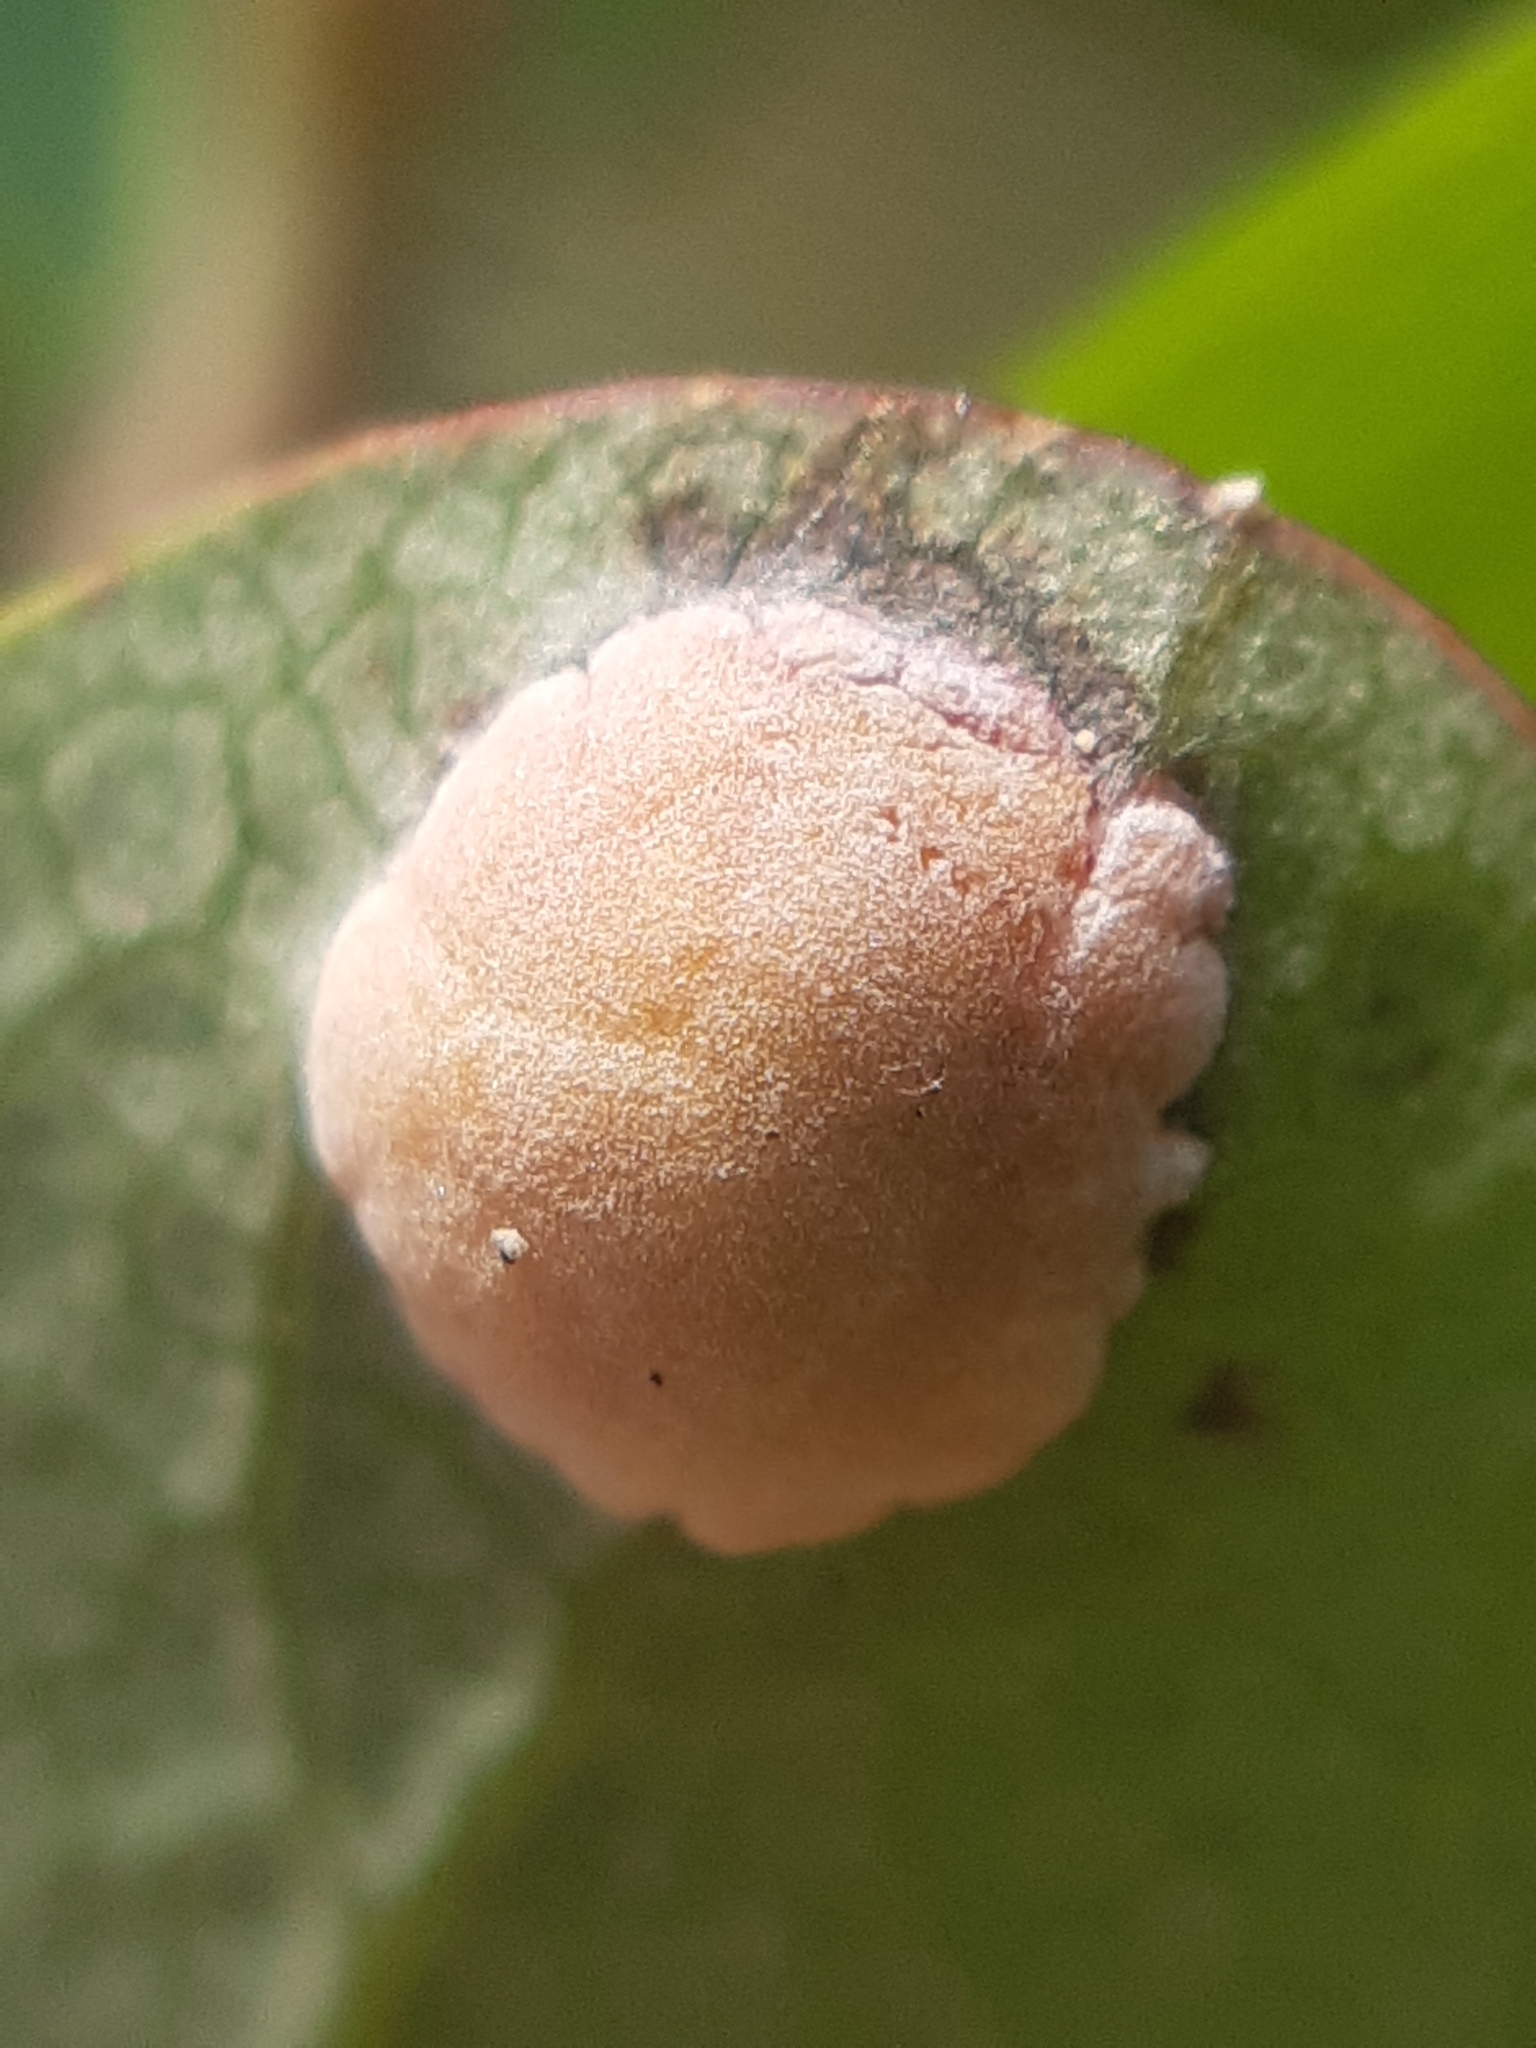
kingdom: Fungi
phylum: Basidiomycota
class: Exobasidiomycetes
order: Exobasidiales
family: Exobasidiaceae
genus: Exobasidium
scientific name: Exobasidium pachysporum
